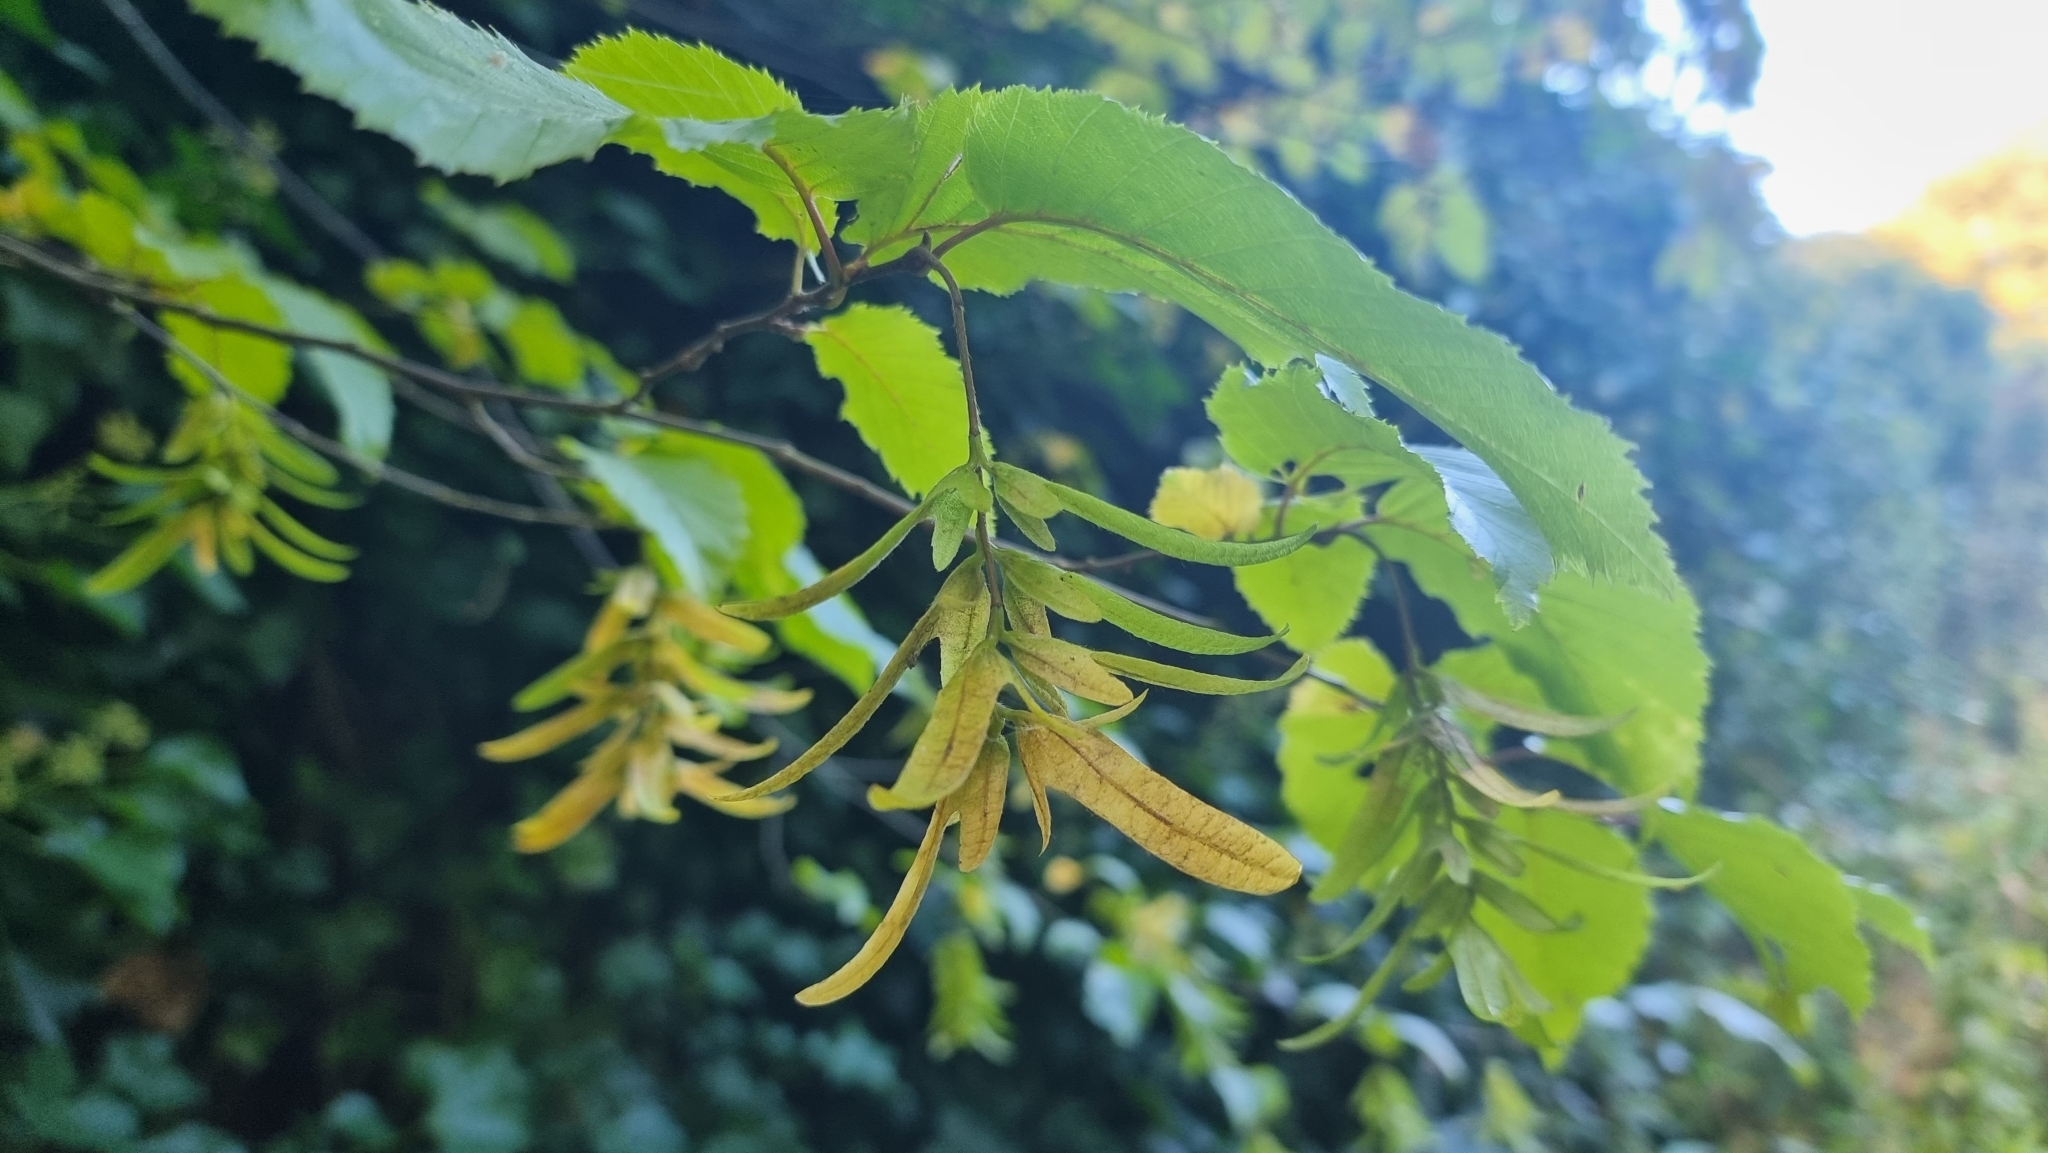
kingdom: Plantae
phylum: Tracheophyta
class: Magnoliopsida
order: Fagales
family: Betulaceae
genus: Carpinus
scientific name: Carpinus betulus
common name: Hornbeam
